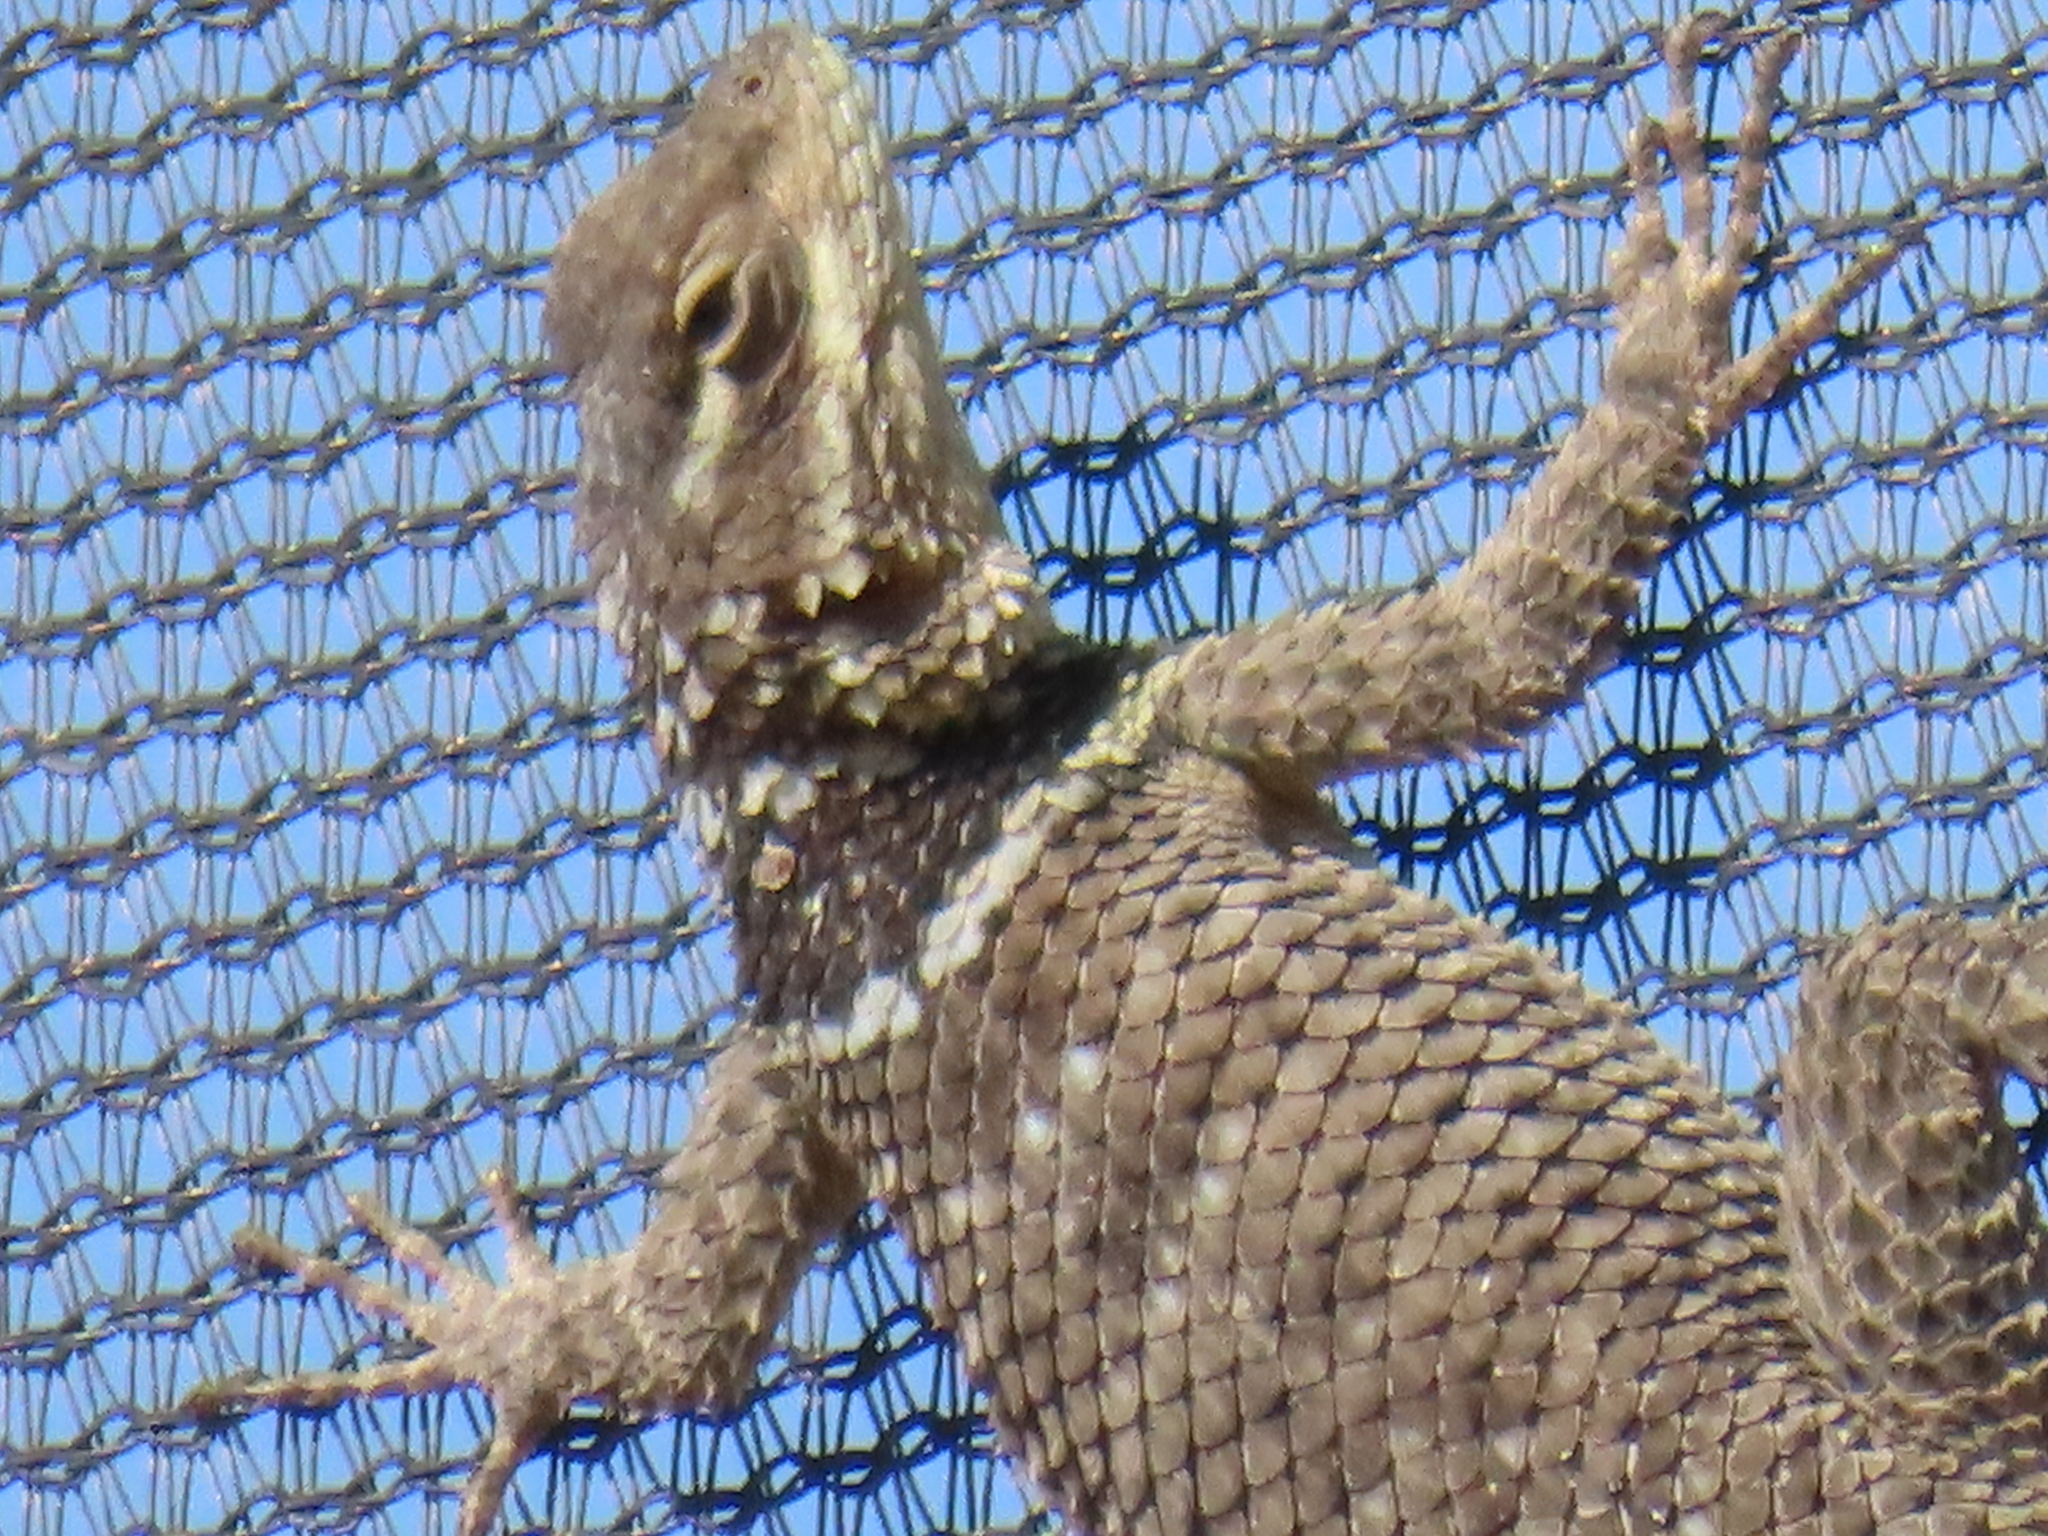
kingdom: Animalia
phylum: Chordata
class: Squamata
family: Phrynosomatidae
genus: Sceloporus
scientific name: Sceloporus cyanogenys
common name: Blue spiny lizard
